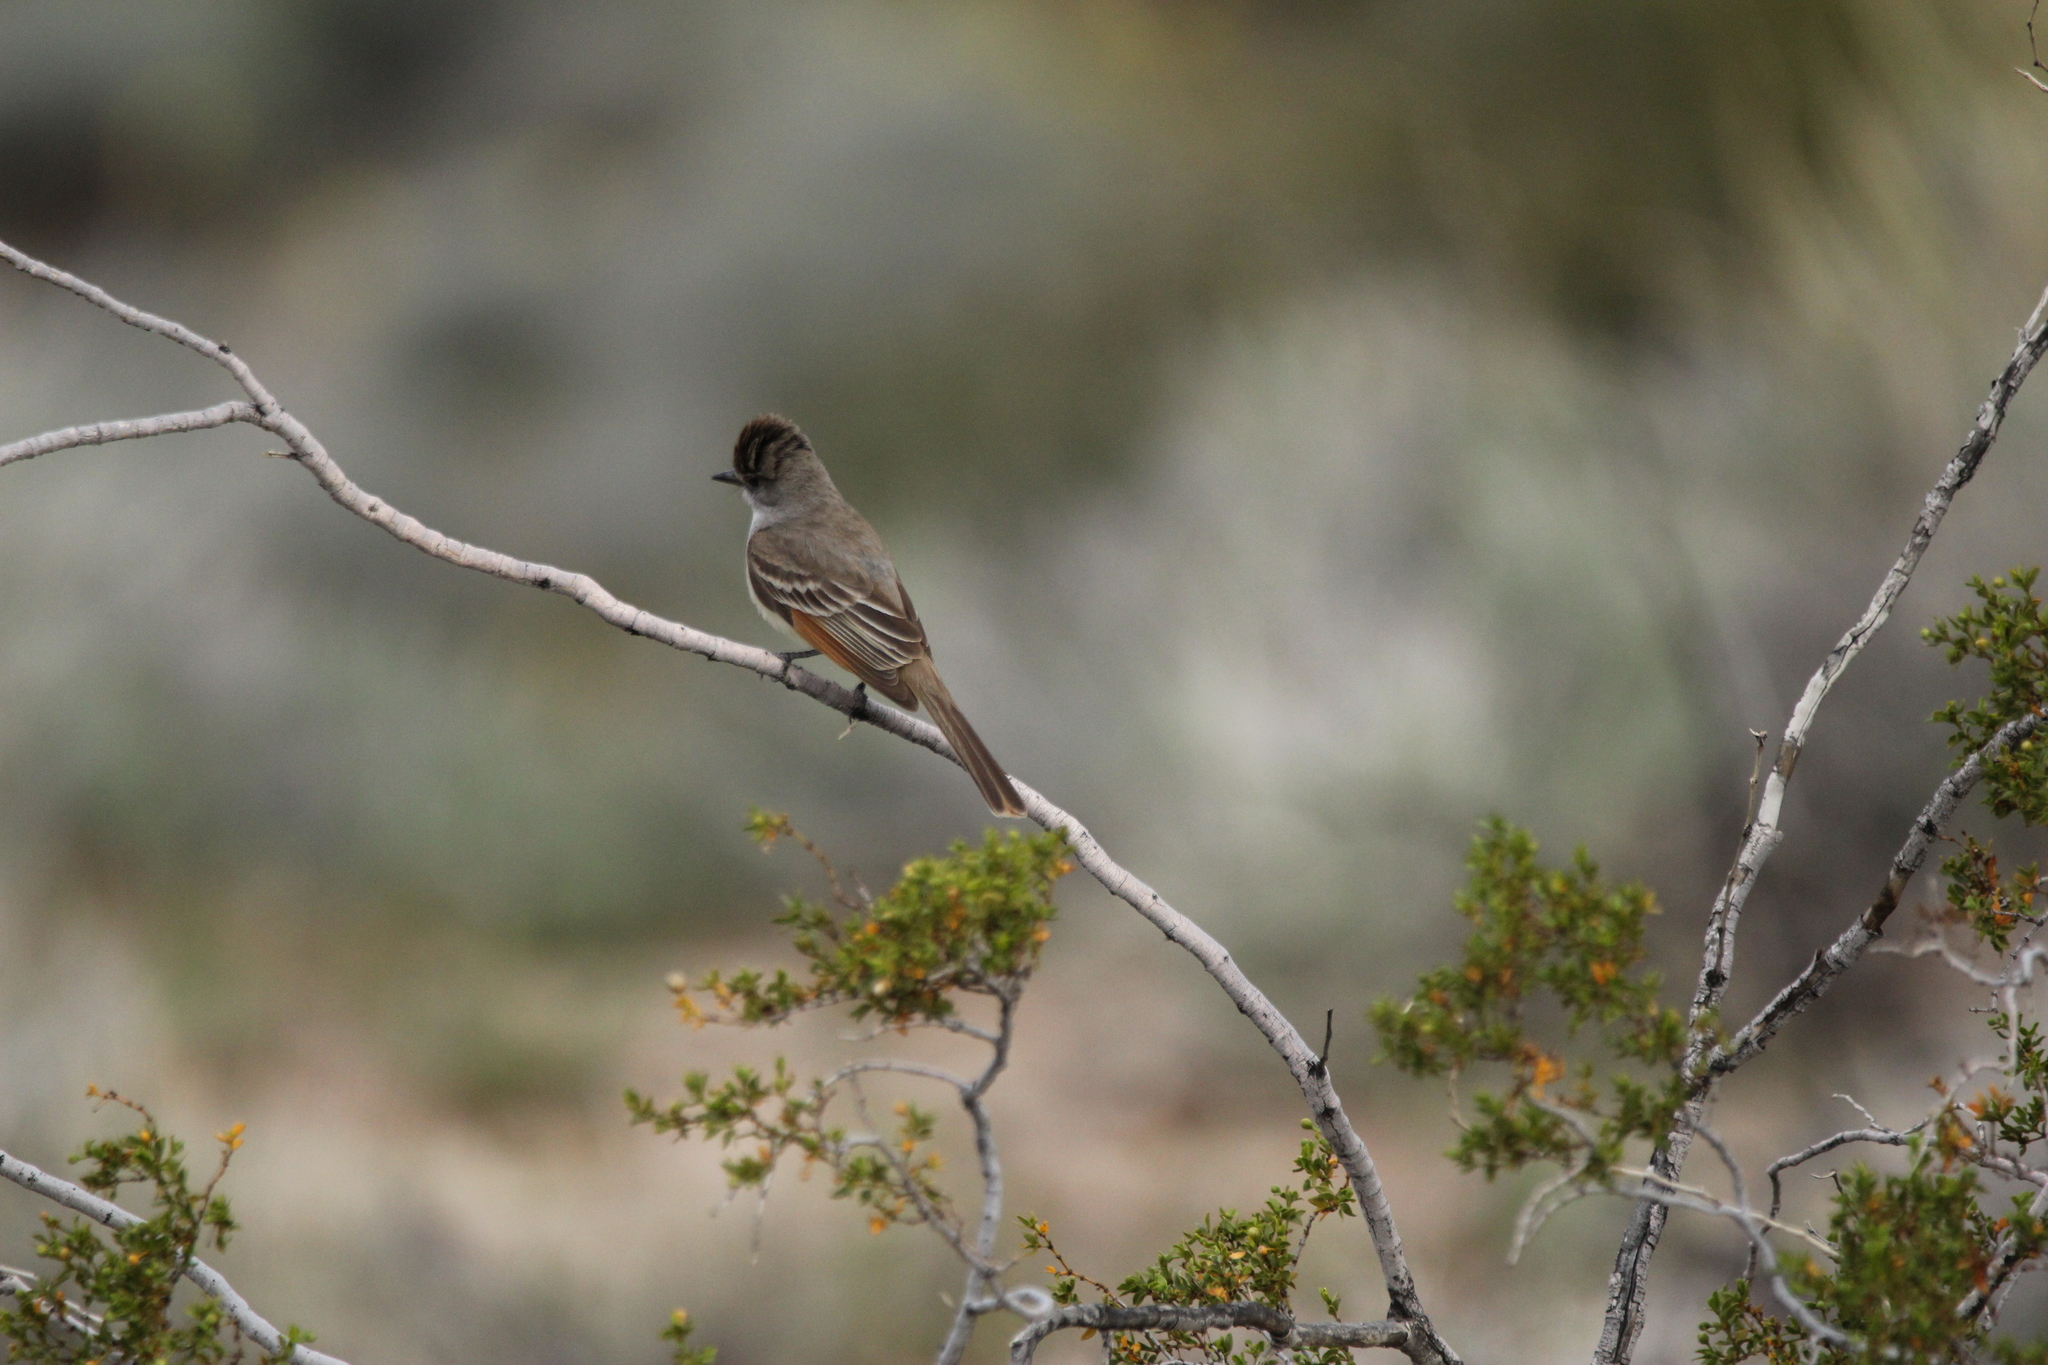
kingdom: Animalia
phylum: Chordata
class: Aves
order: Passeriformes
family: Tyrannidae
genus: Myiarchus
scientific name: Myiarchus cinerascens
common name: Ash-throated flycatcher
